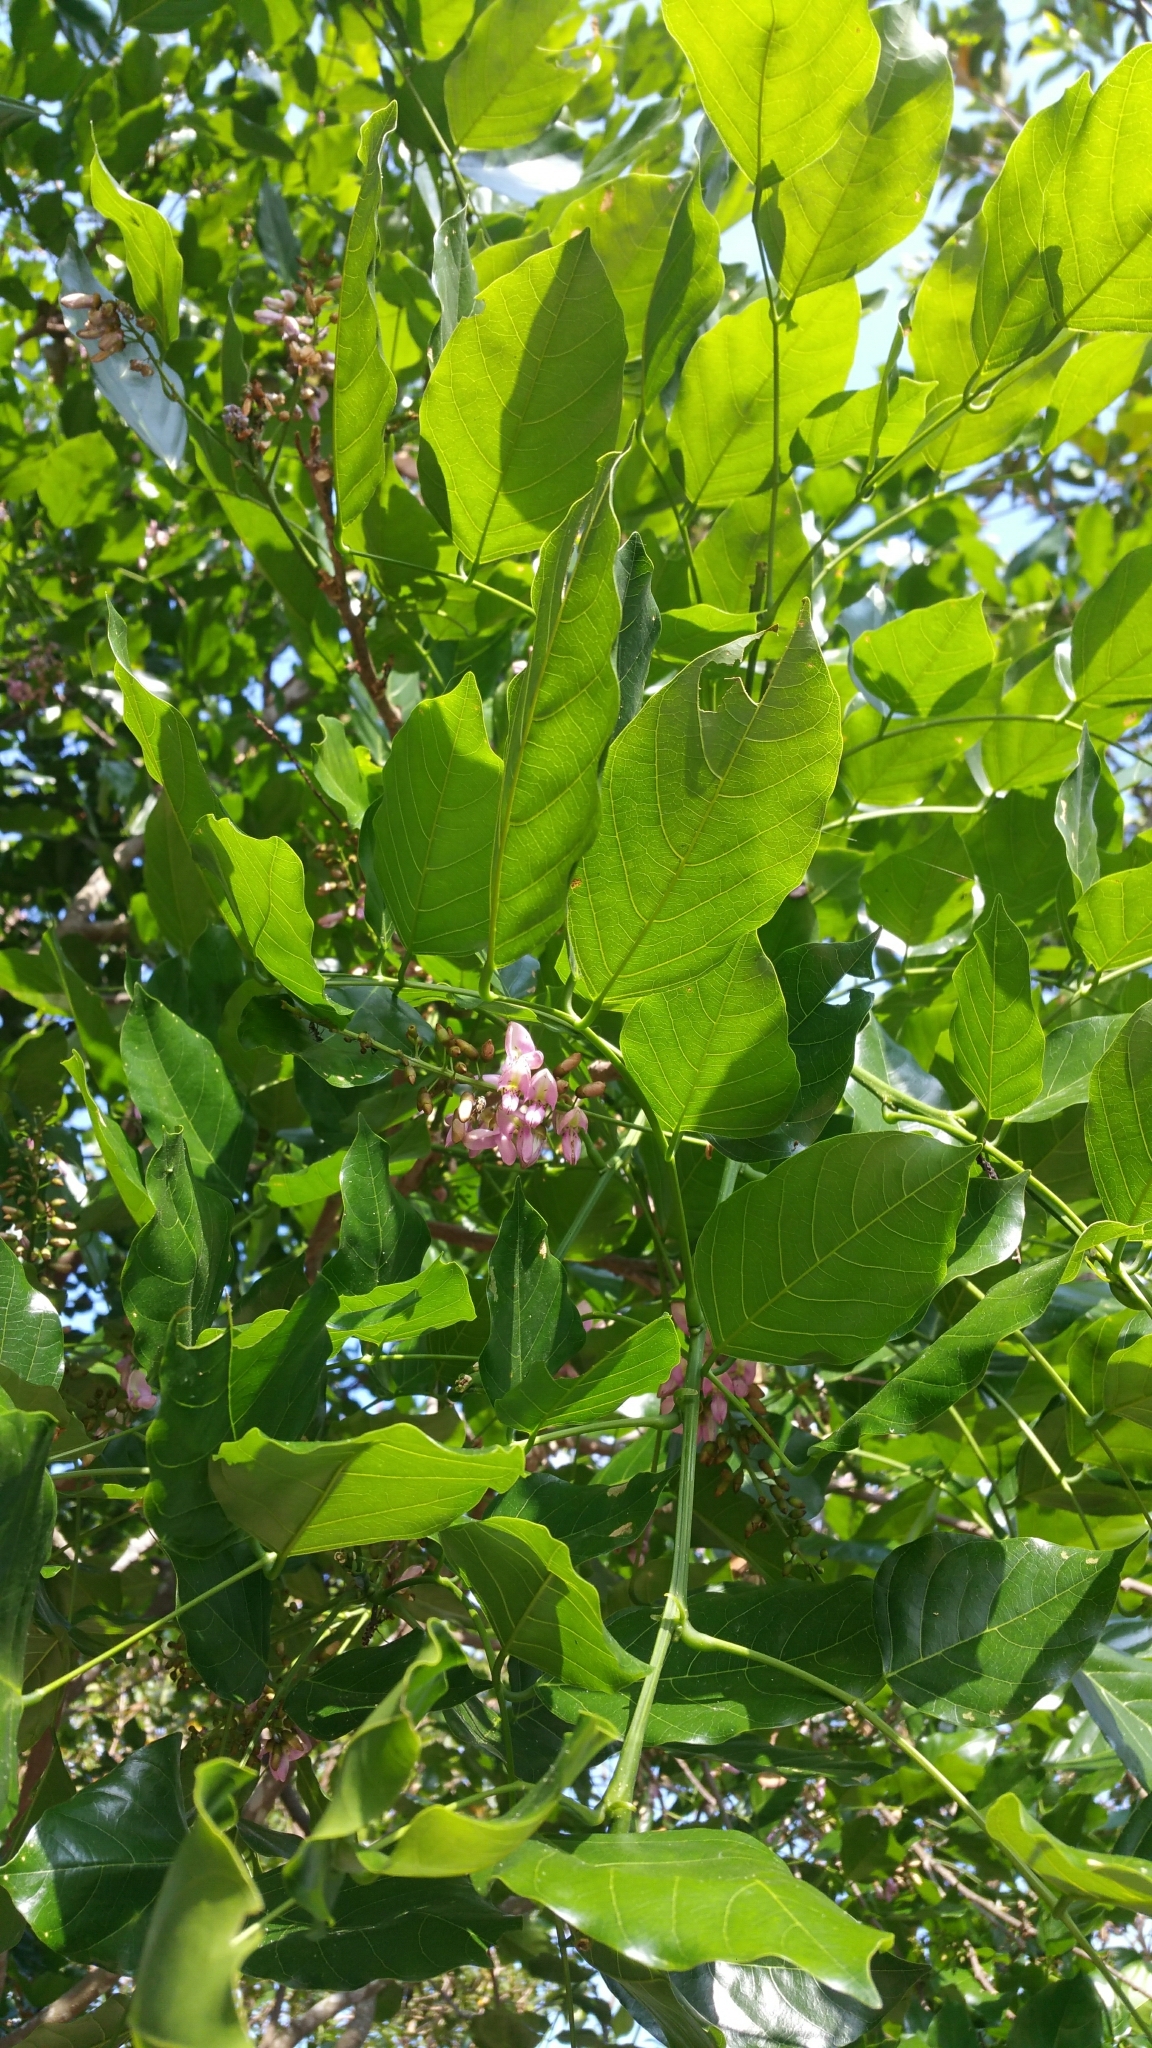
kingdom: Plantae
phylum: Tracheophyta
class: Magnoliopsida
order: Fabales
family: Fabaceae
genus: Pongamia
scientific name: Pongamia pinnata
